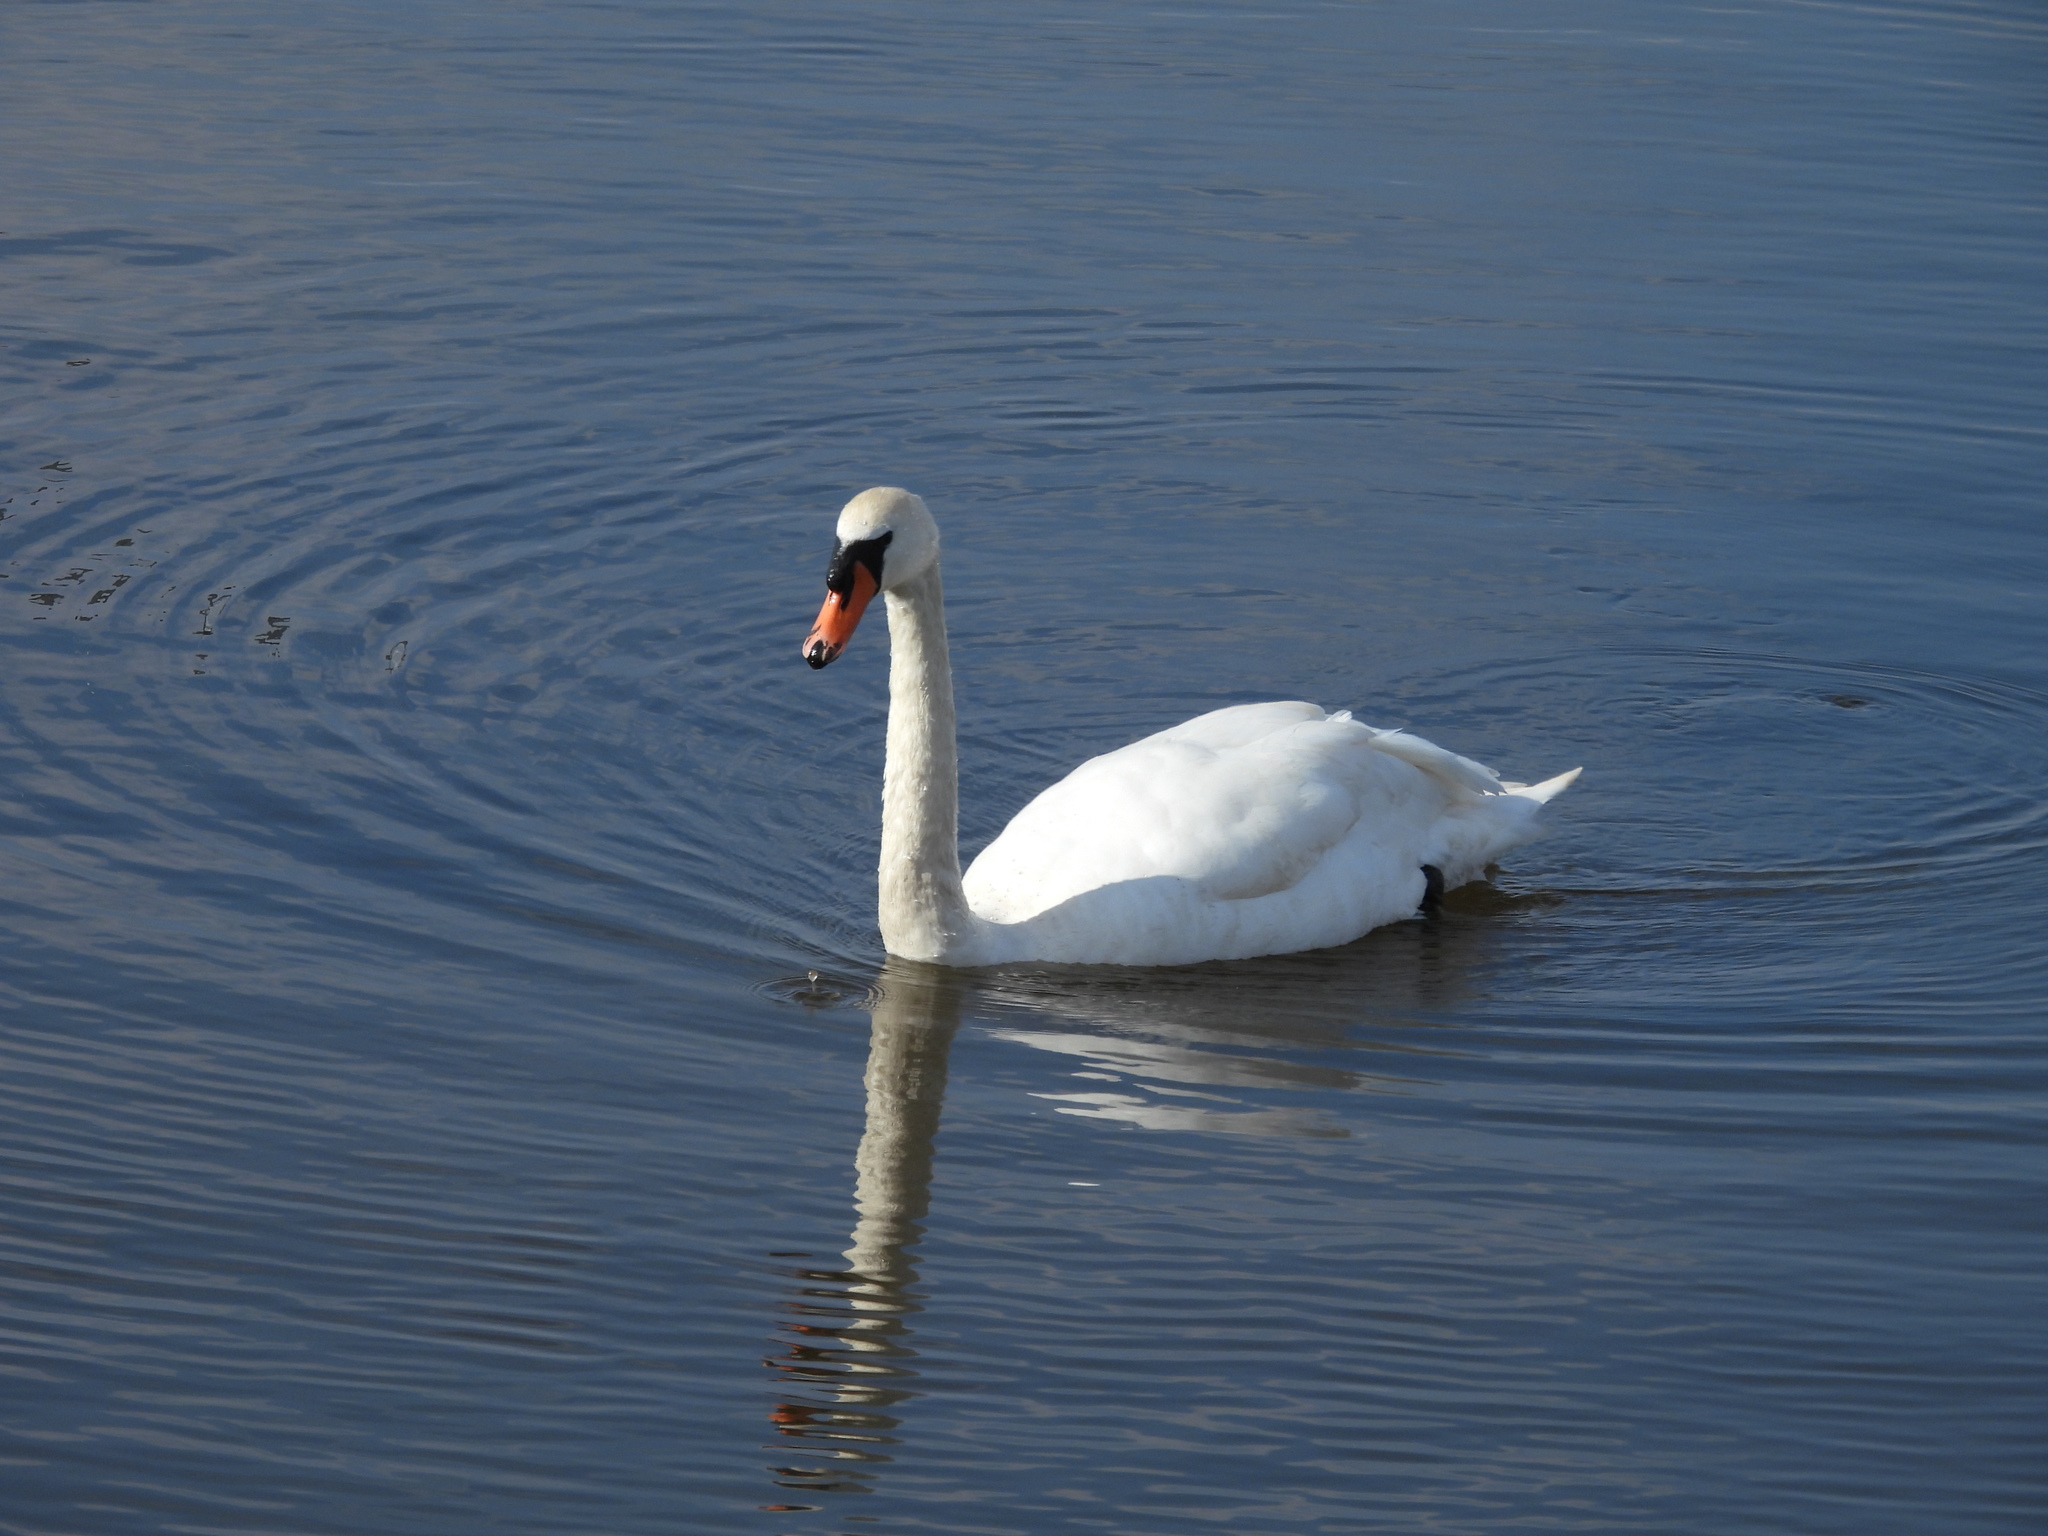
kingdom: Animalia
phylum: Chordata
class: Aves
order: Anseriformes
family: Anatidae
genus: Cygnus
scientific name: Cygnus olor
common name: Mute swan
